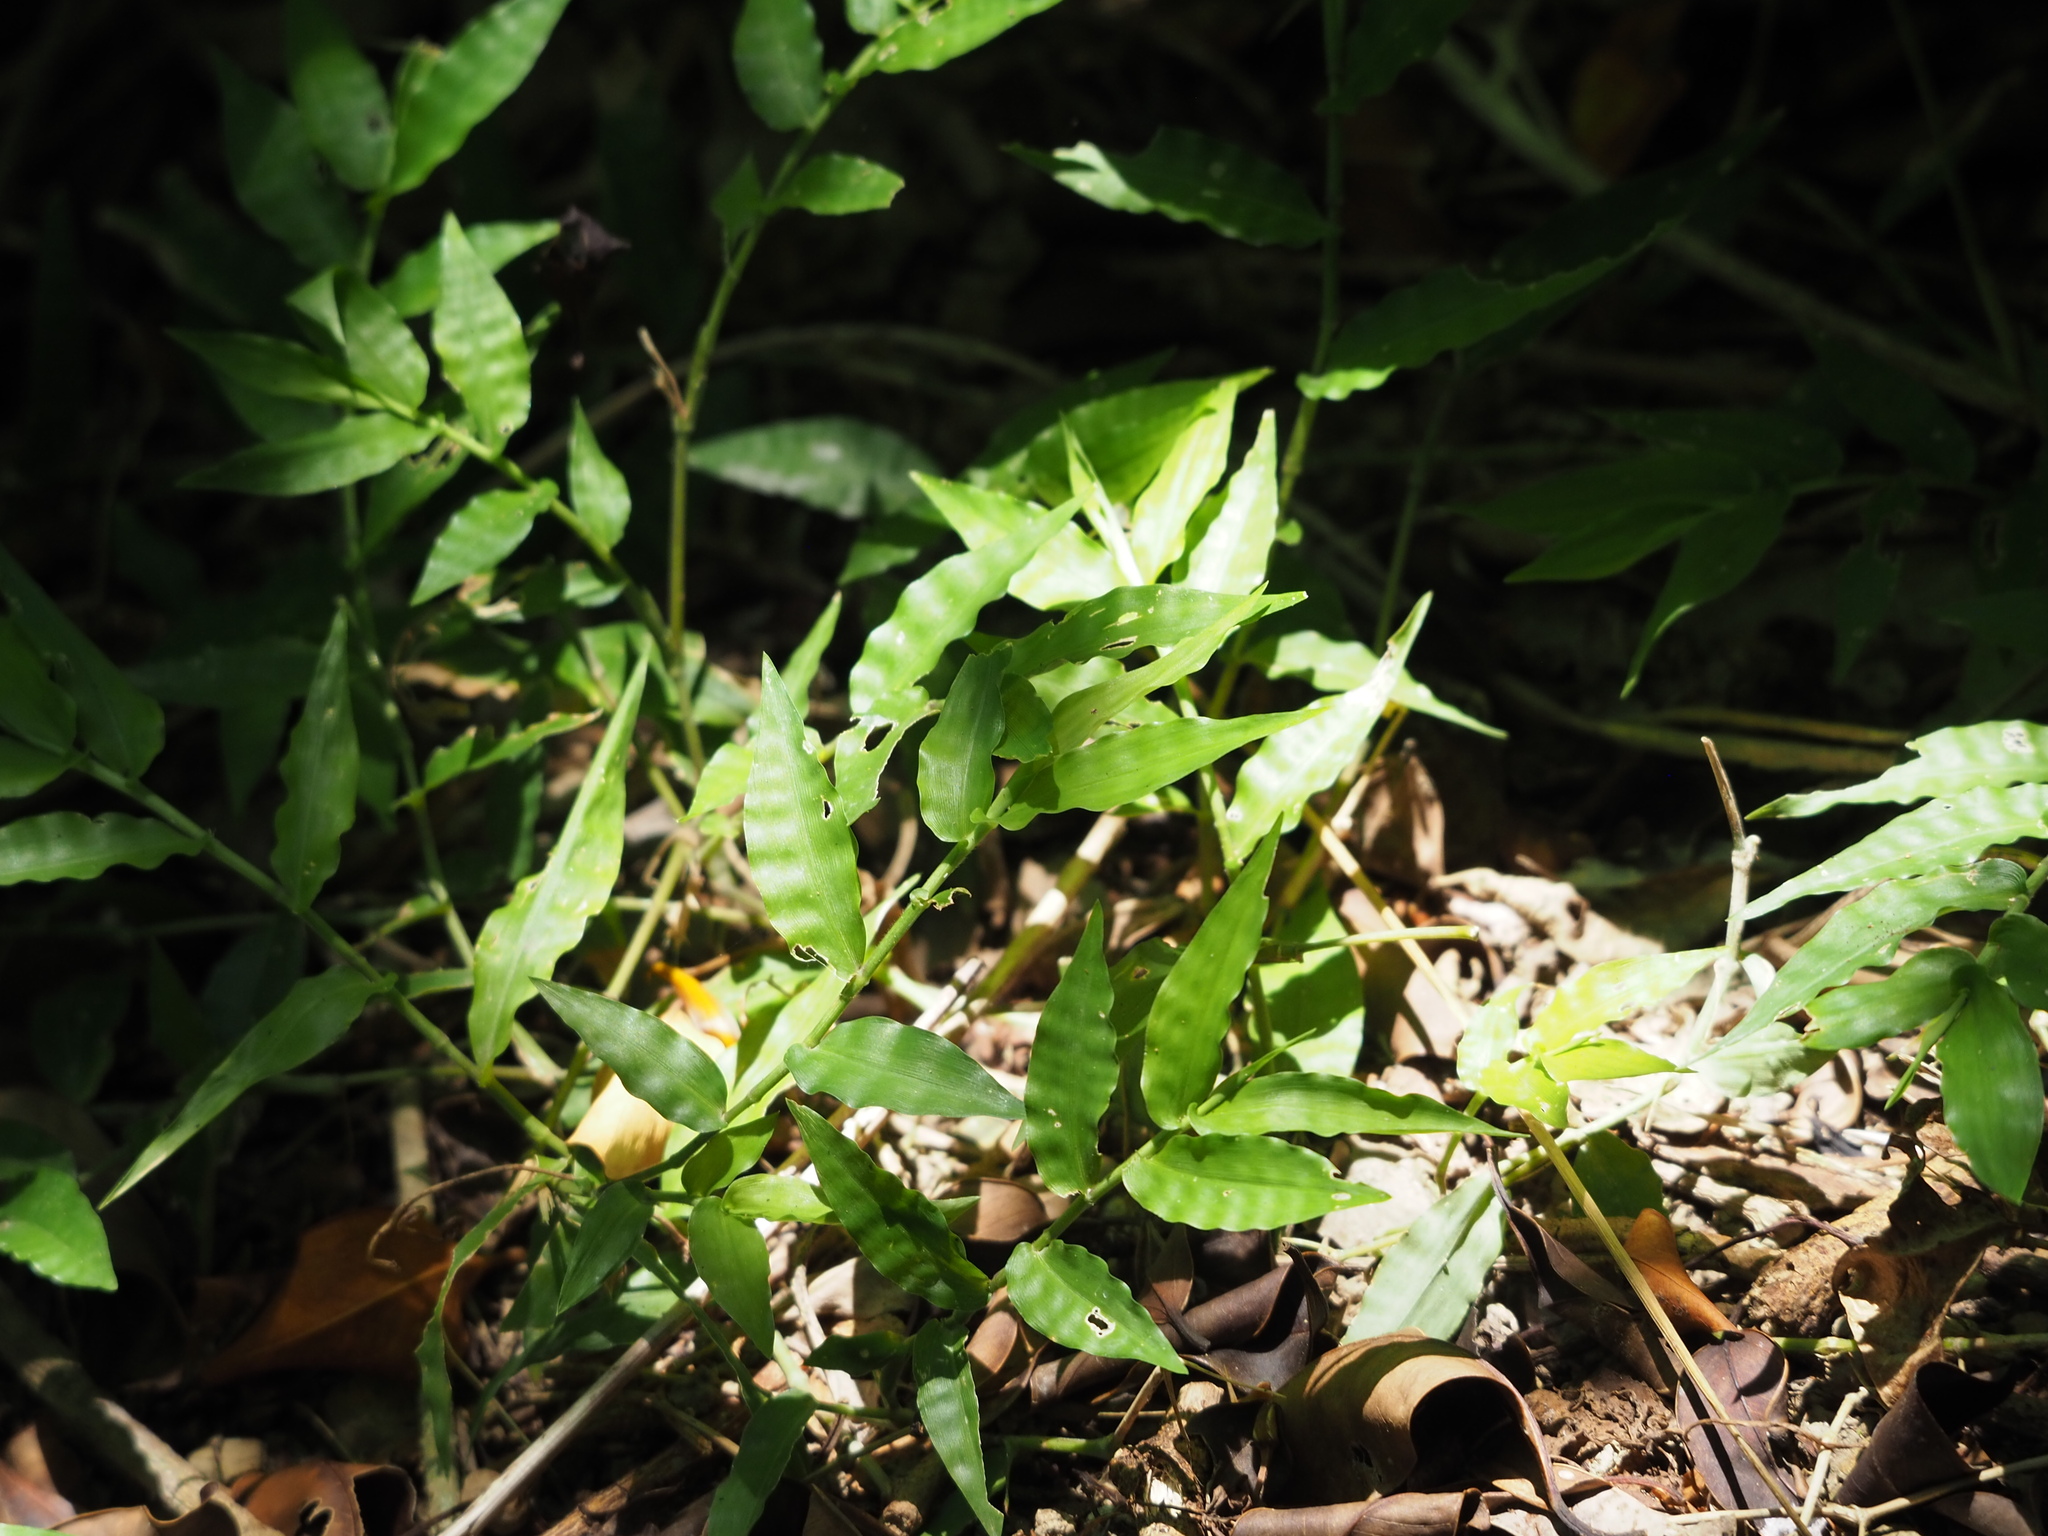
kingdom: Plantae
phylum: Tracheophyta
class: Liliopsida
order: Poales
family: Poaceae
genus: Oplismenus
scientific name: Oplismenus compositus
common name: Running mountain grass
